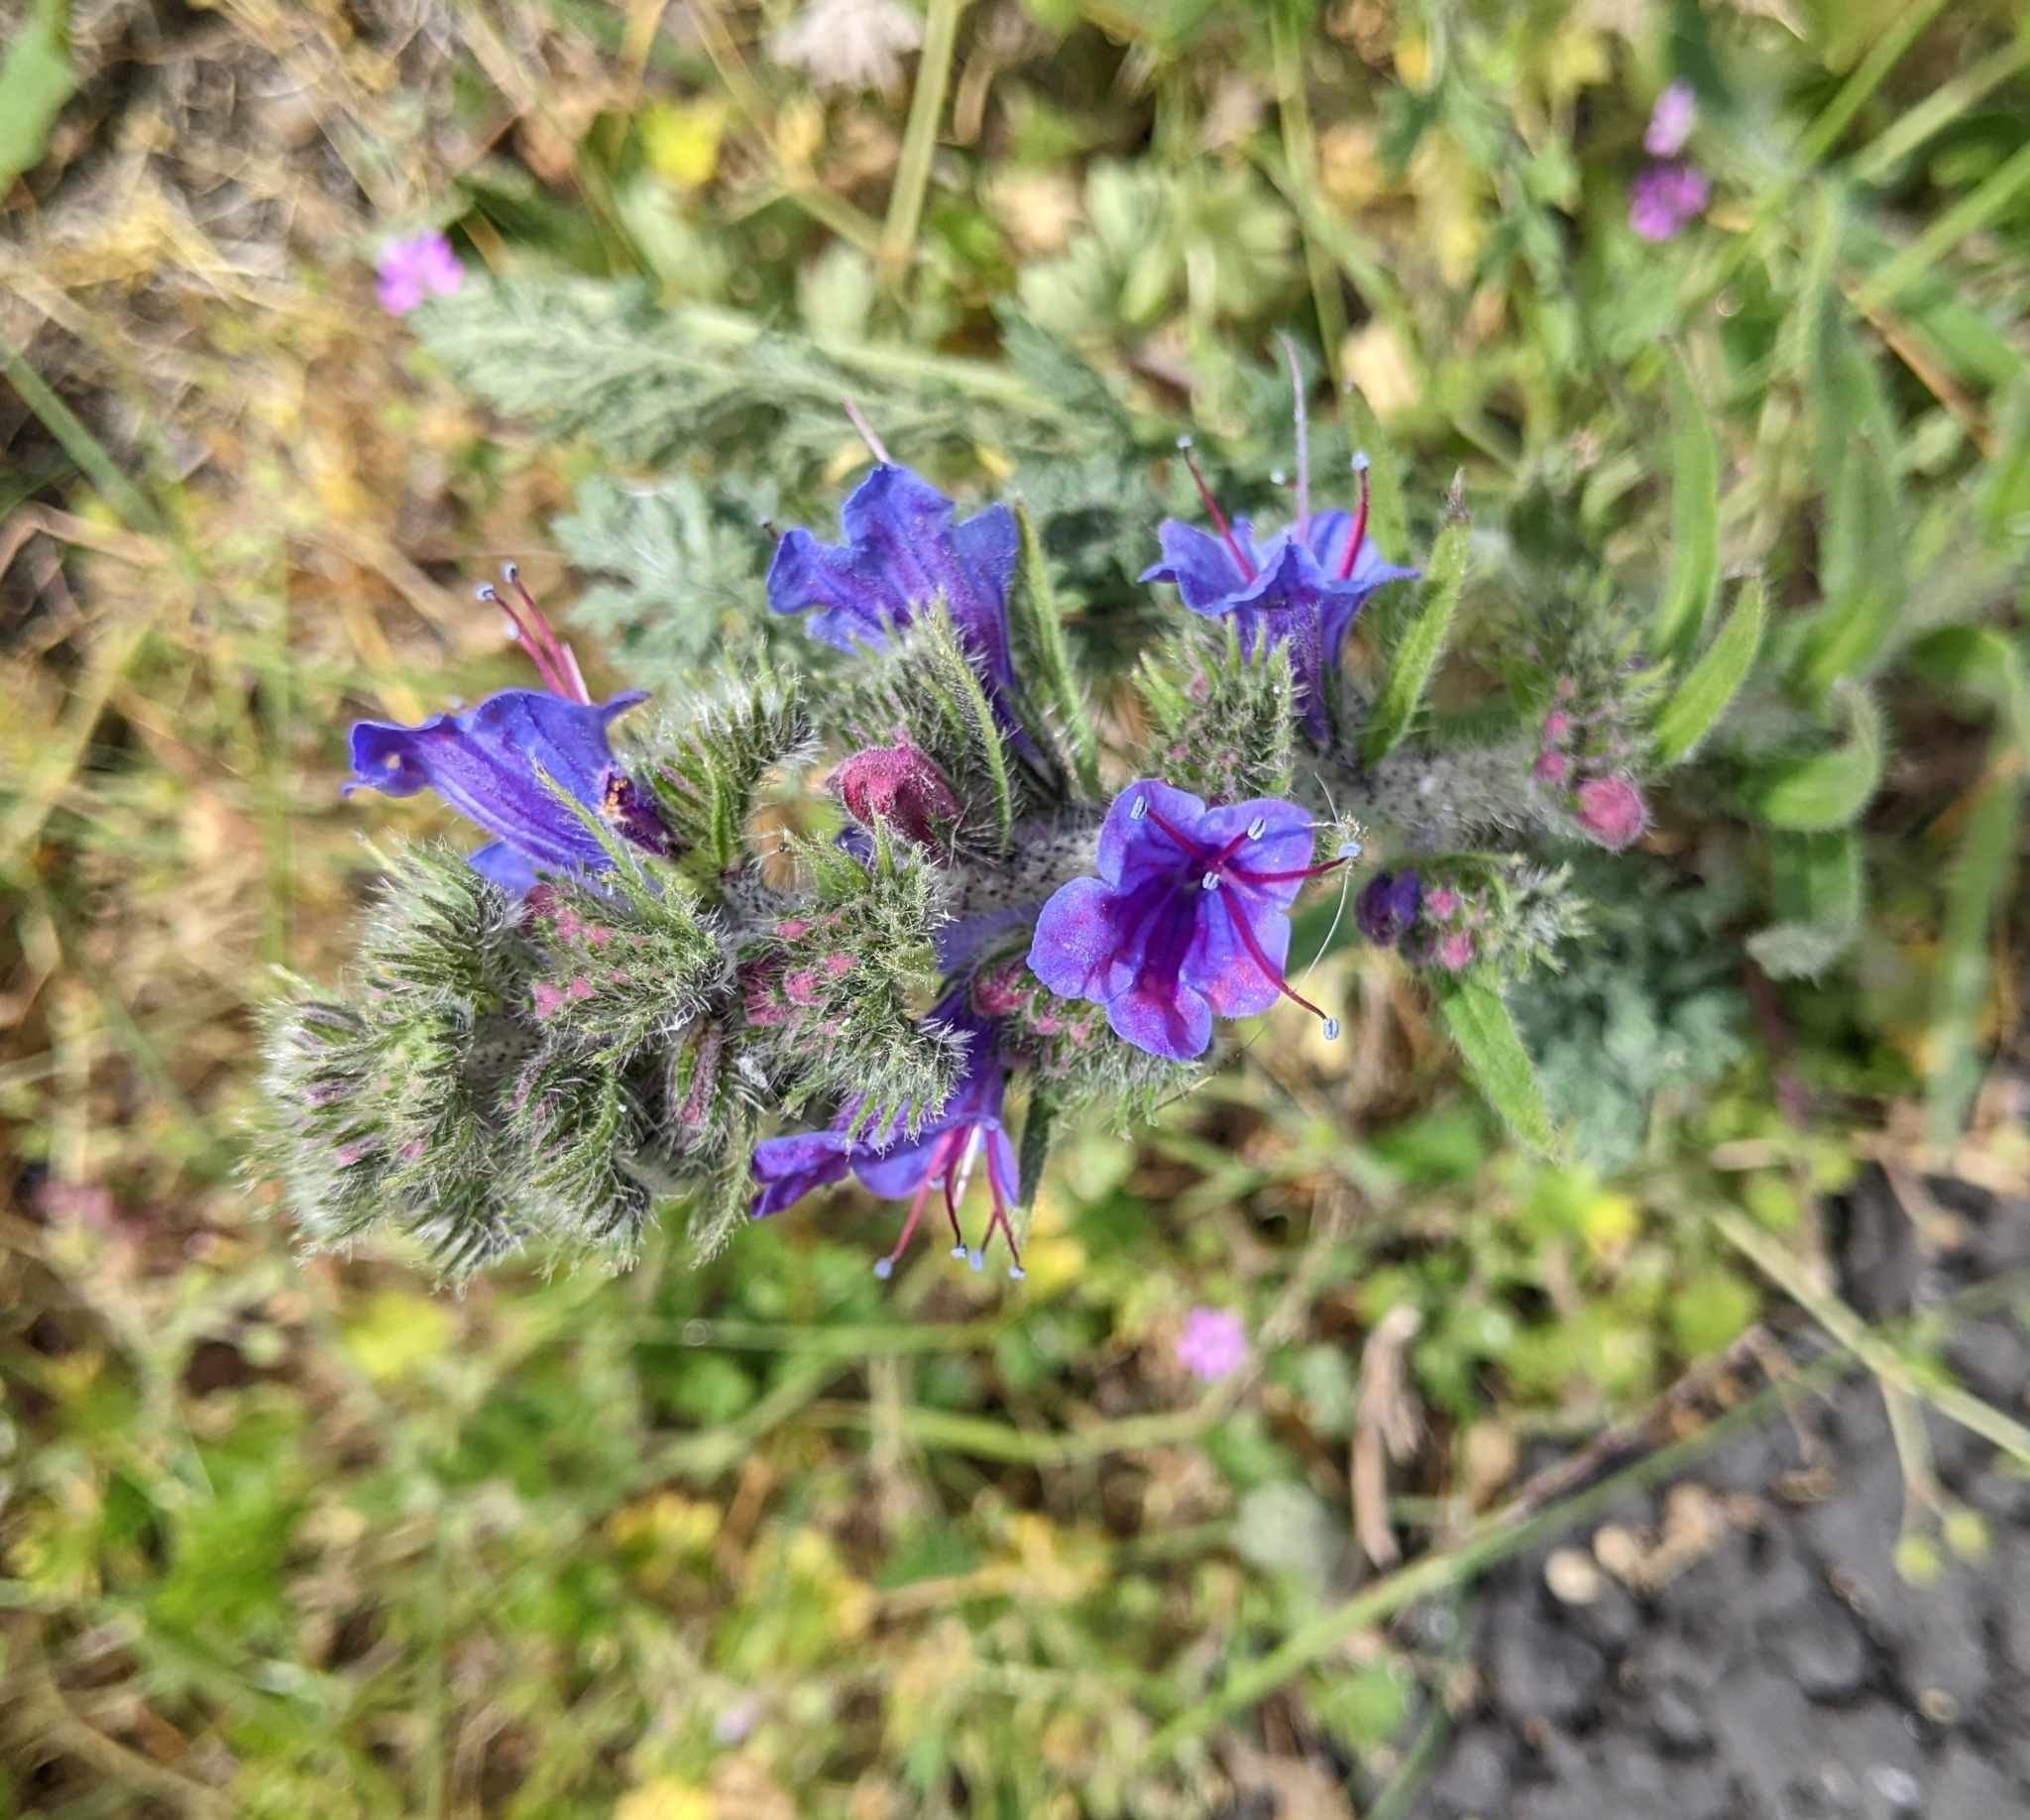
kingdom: Plantae
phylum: Tracheophyta
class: Magnoliopsida
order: Boraginales
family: Boraginaceae
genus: Echium
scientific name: Echium vulgare
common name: Common viper's bugloss
